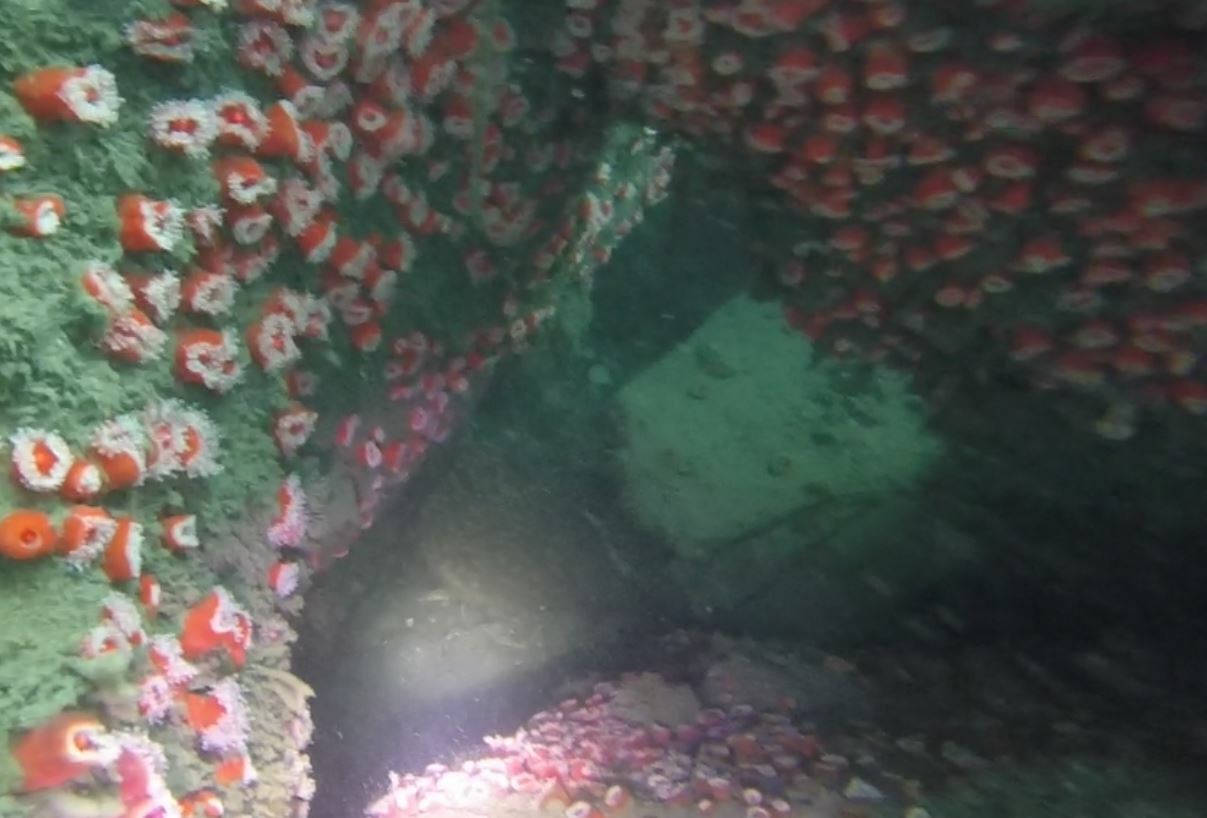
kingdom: Animalia
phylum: Cnidaria
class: Anthozoa
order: Corallimorpharia
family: Corallimorphidae
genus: Corynactis
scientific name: Corynactis californica
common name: Strawberry corallimorpharian
